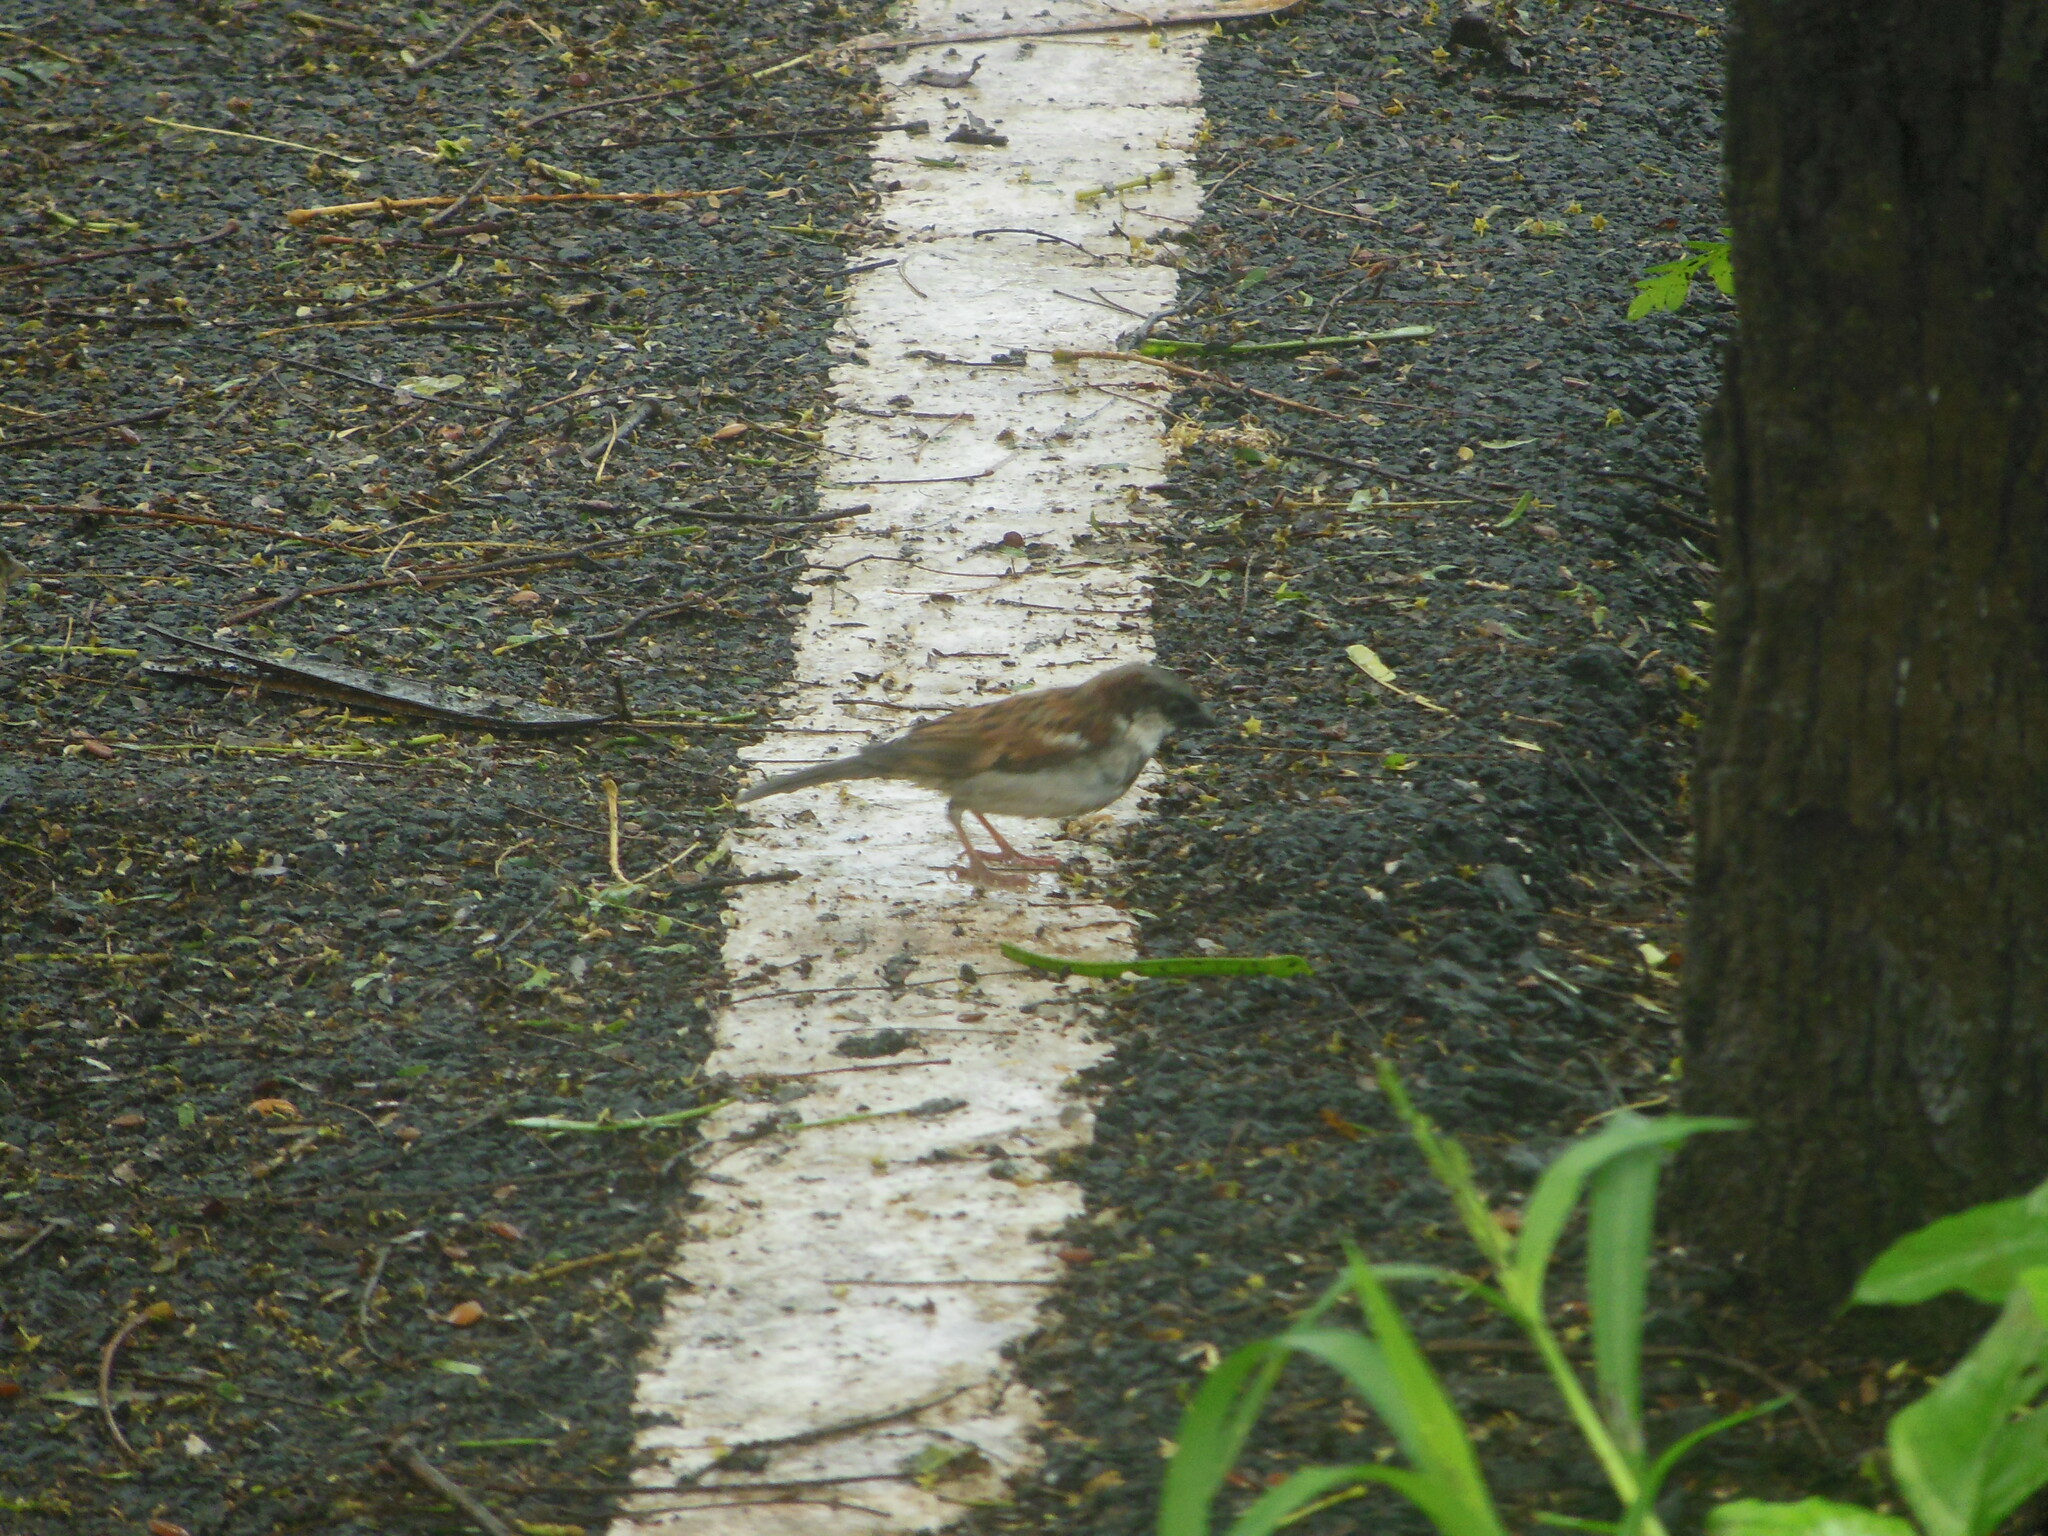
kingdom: Animalia
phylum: Chordata
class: Aves
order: Passeriformes
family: Passeridae
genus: Passer
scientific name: Passer domesticus
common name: House sparrow
